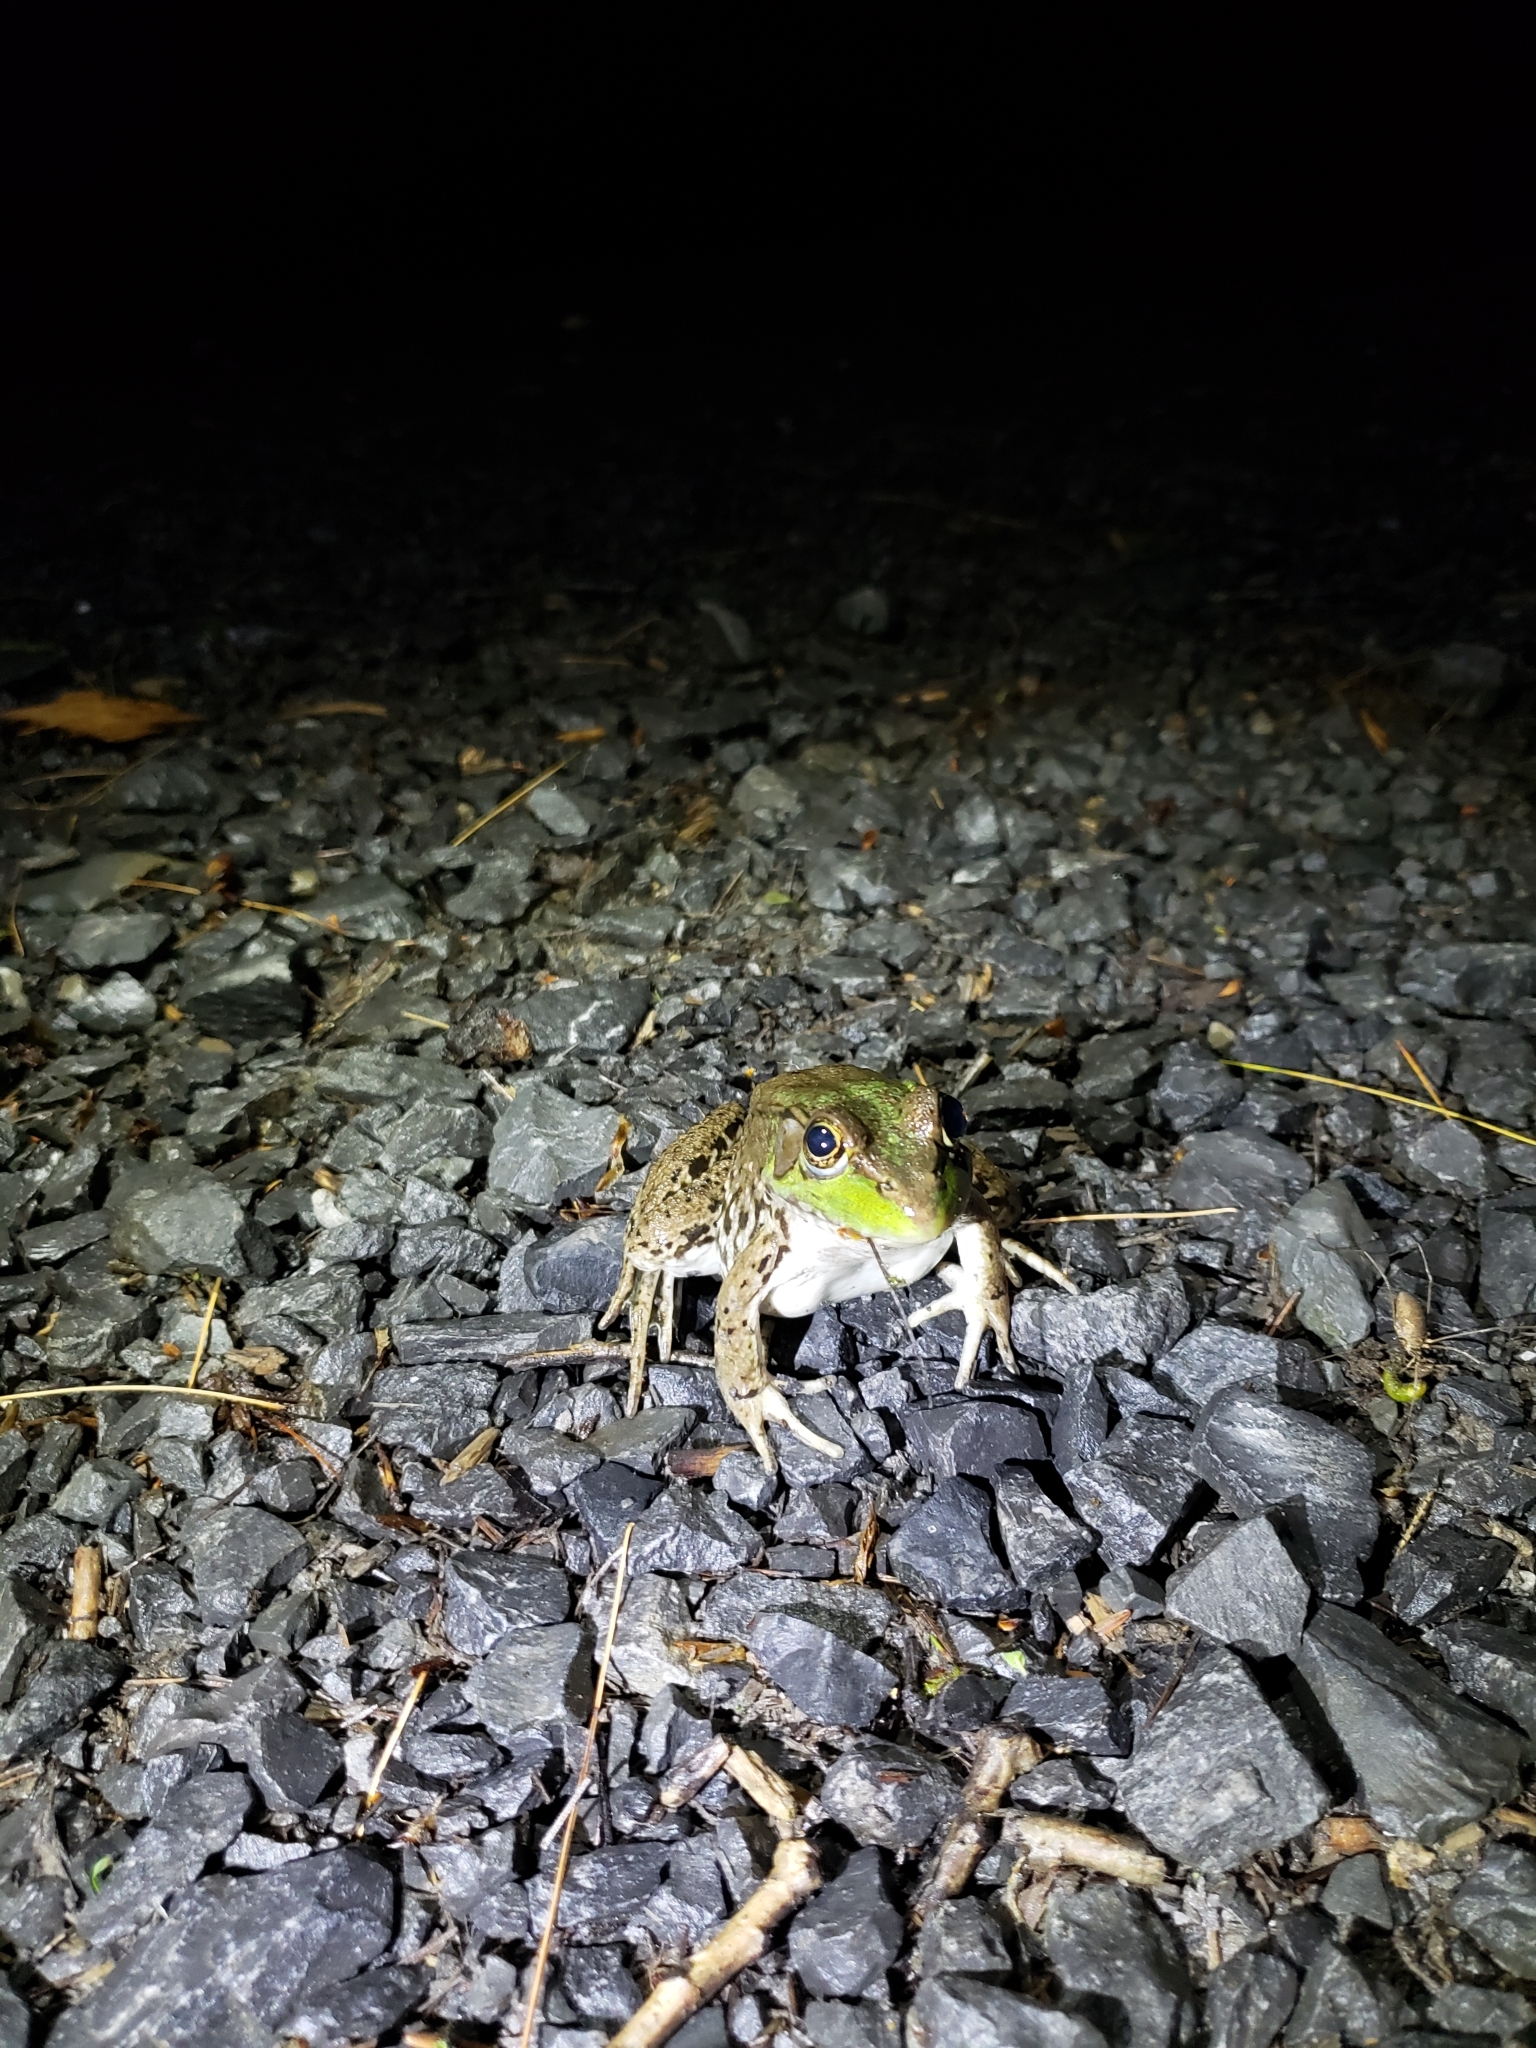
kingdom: Animalia
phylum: Chordata
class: Amphibia
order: Anura
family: Ranidae
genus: Lithobates
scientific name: Lithobates clamitans
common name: Green frog
